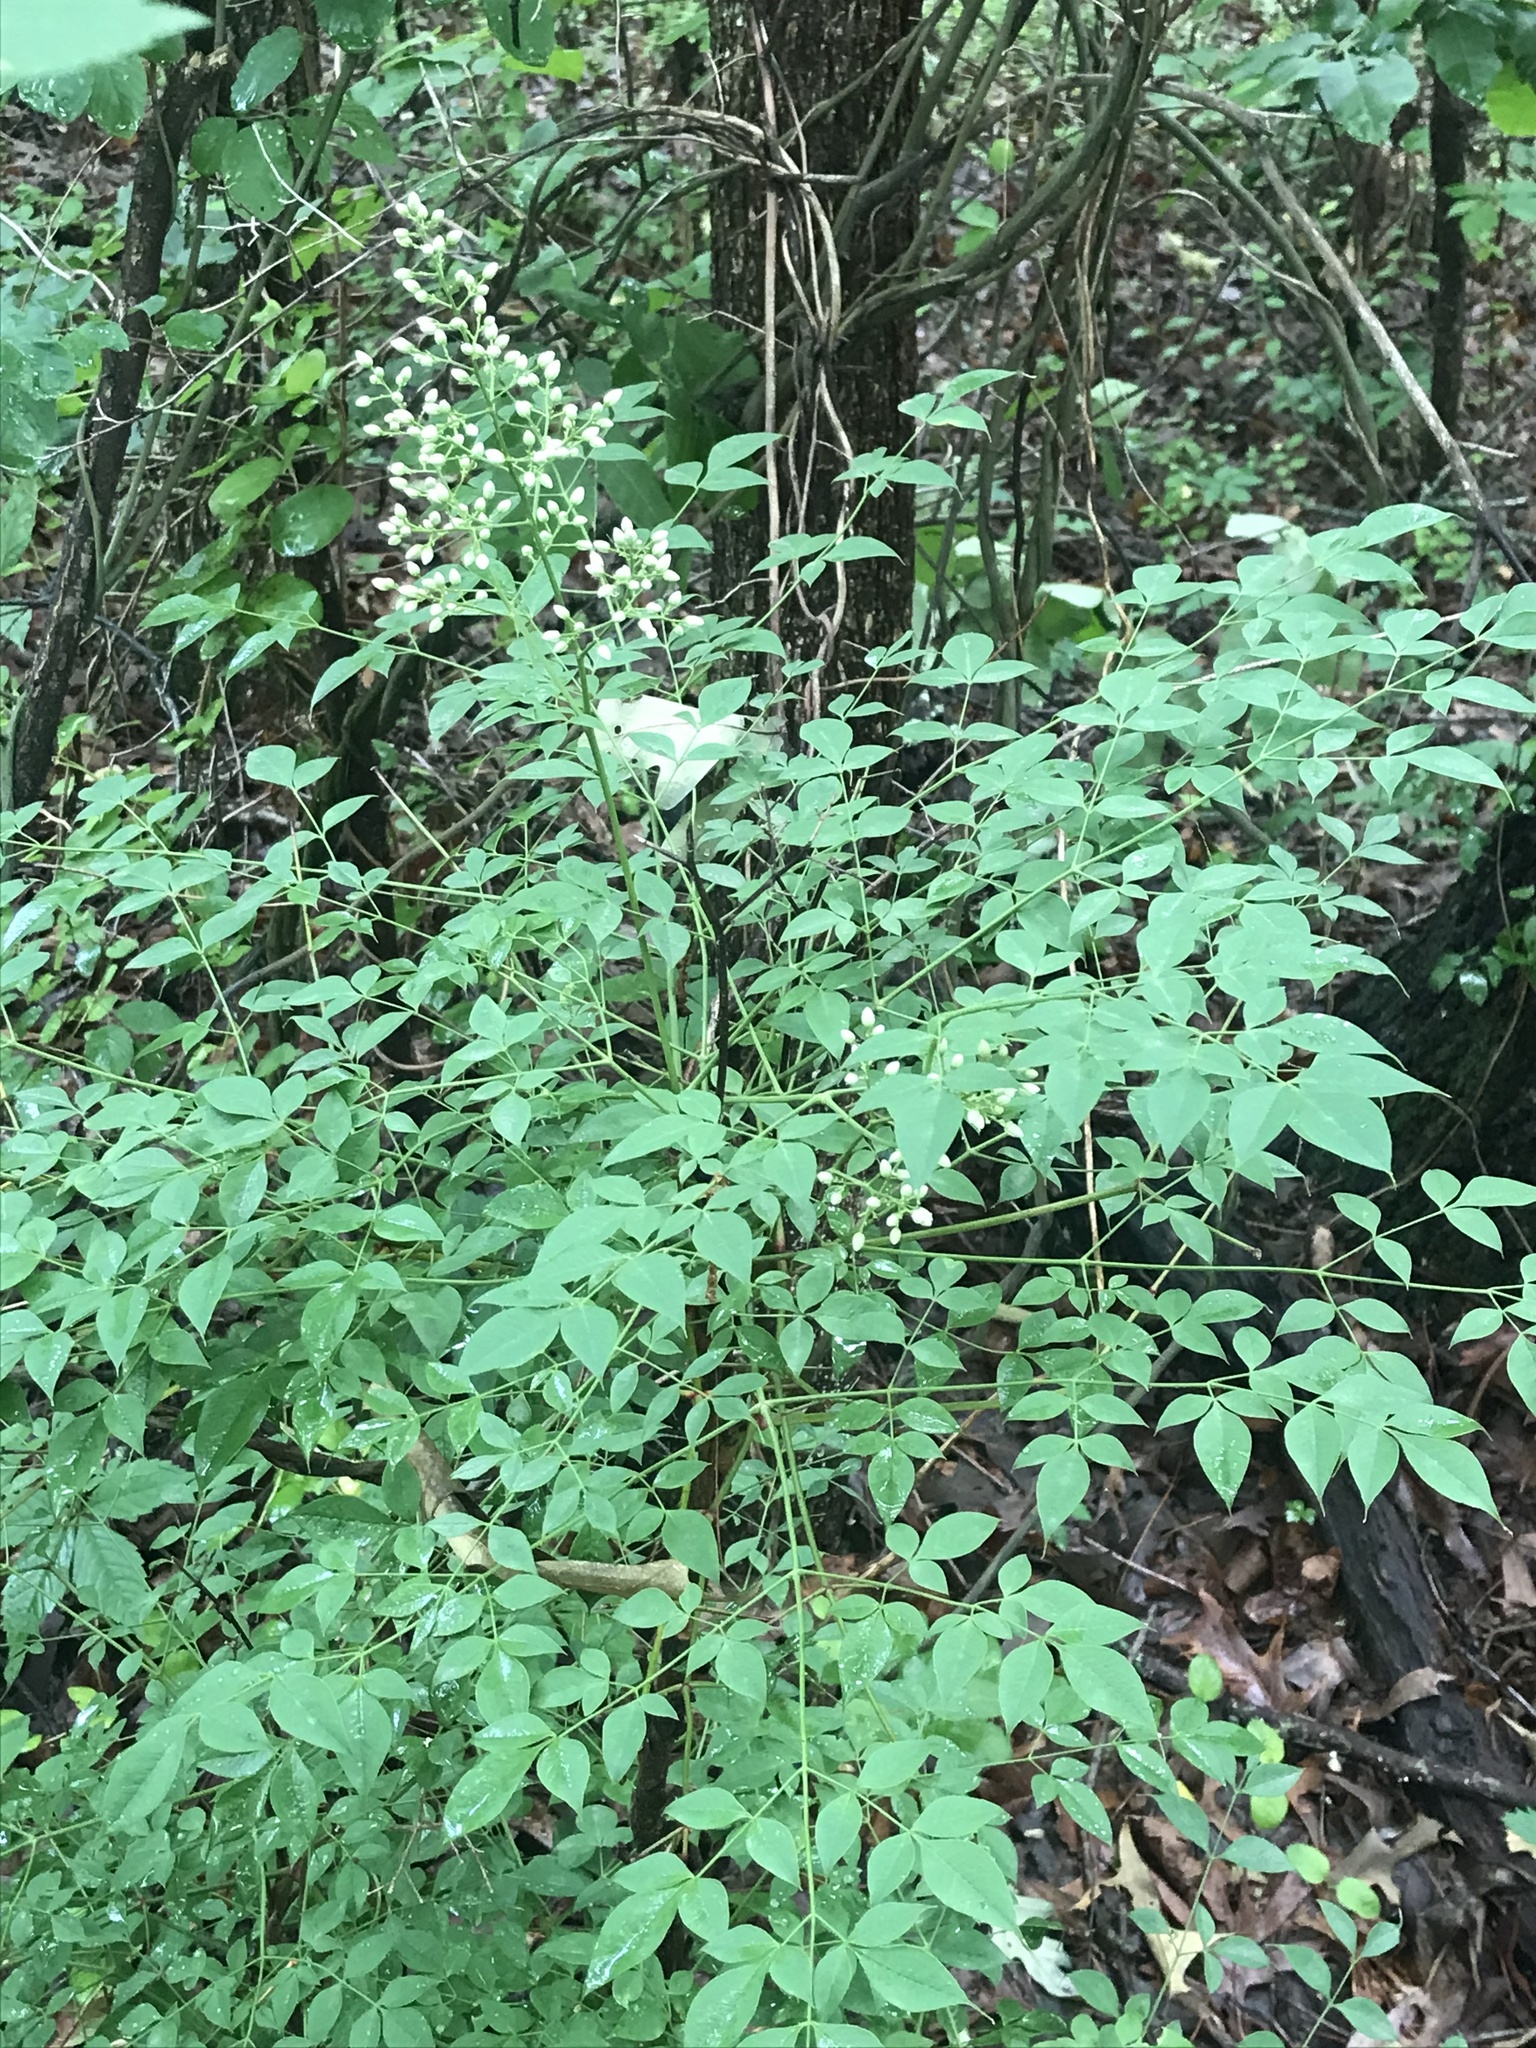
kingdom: Plantae
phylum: Tracheophyta
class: Magnoliopsida
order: Ranunculales
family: Berberidaceae
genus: Nandina
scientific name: Nandina domestica
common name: Sacred bamboo
